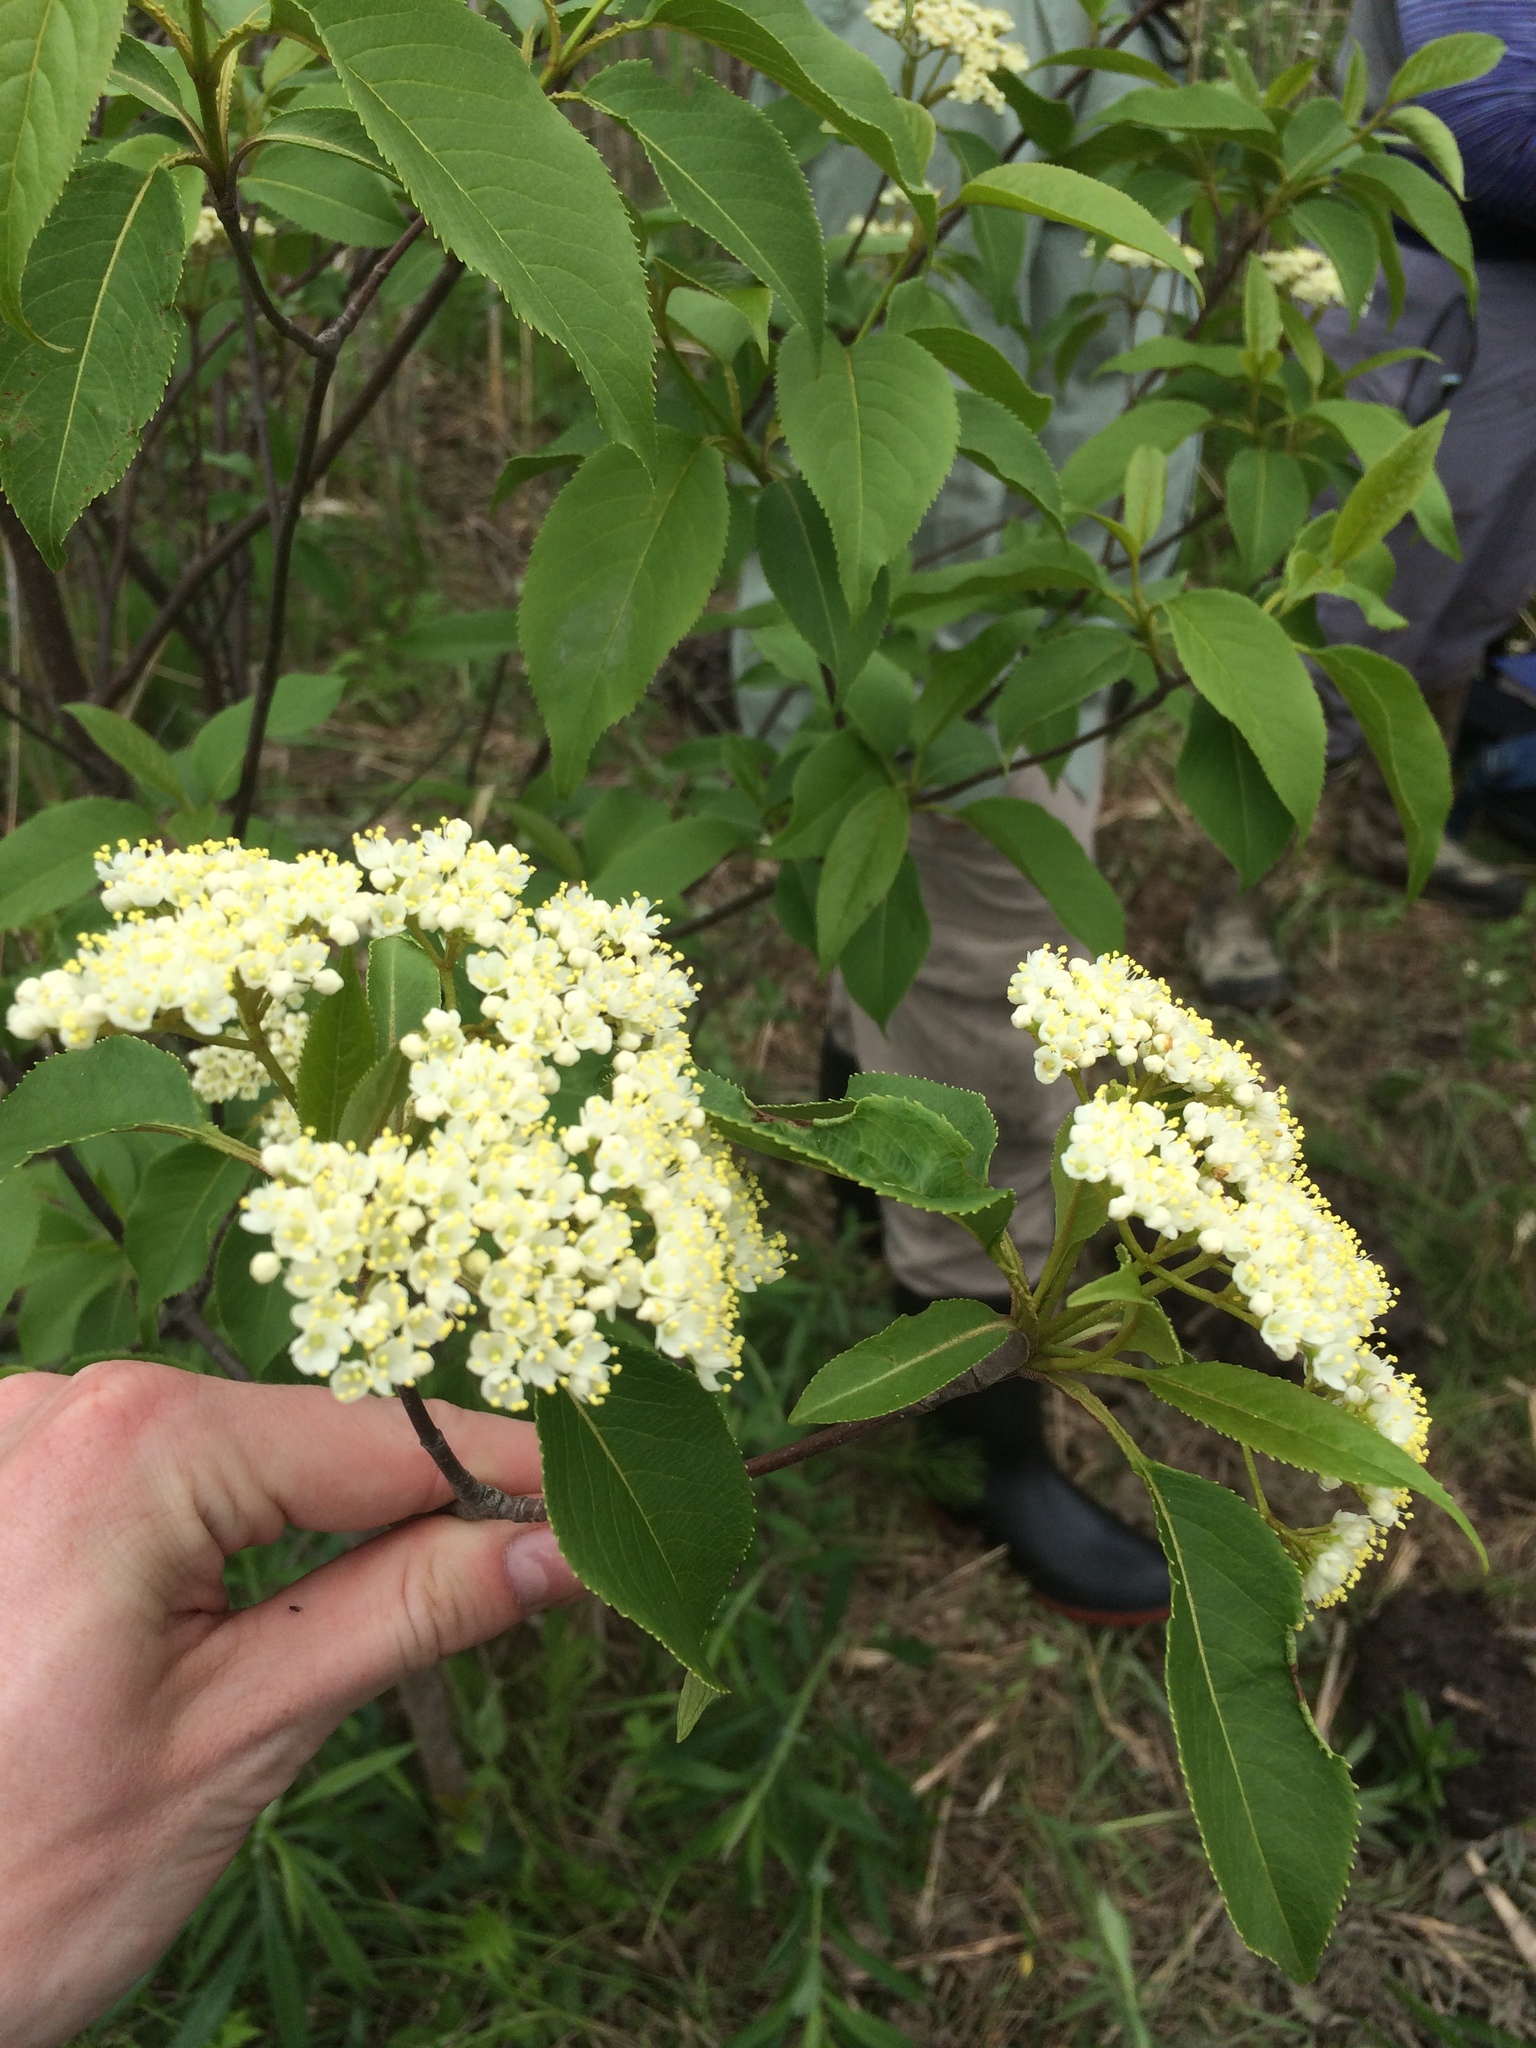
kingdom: Plantae
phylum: Tracheophyta
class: Magnoliopsida
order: Dipsacales
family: Viburnaceae
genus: Viburnum
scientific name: Viburnum lentago
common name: Black haw
